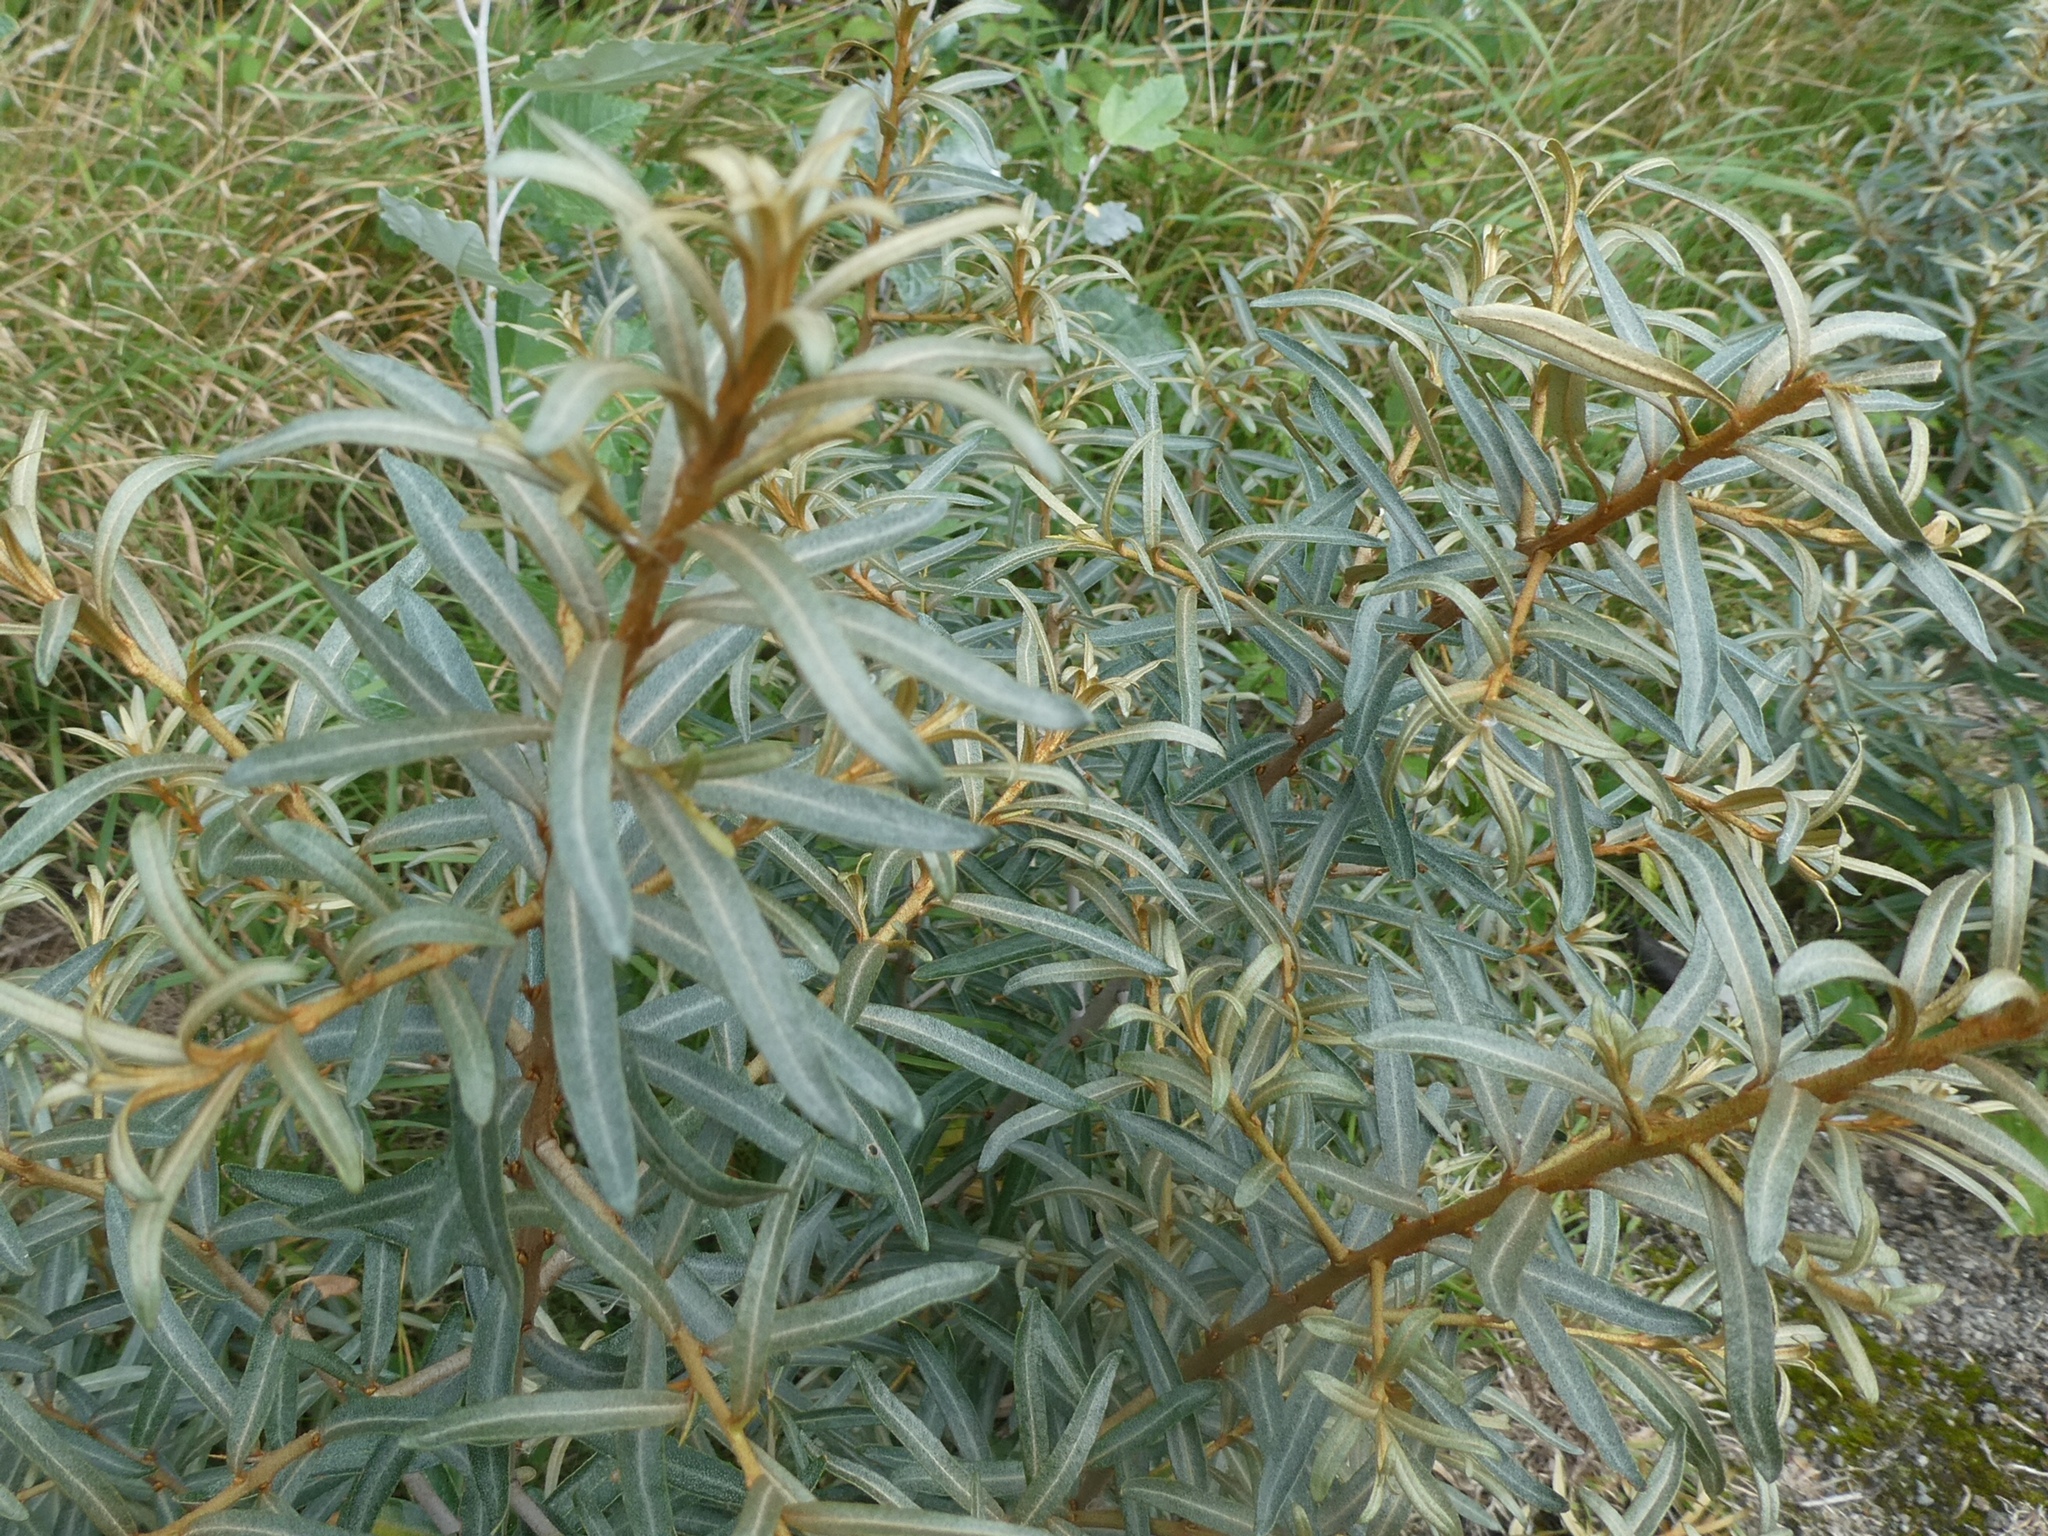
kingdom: Plantae
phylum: Tracheophyta
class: Magnoliopsida
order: Rosales
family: Elaeagnaceae
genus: Hippophae
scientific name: Hippophae rhamnoides
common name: Sea-buckthorn
